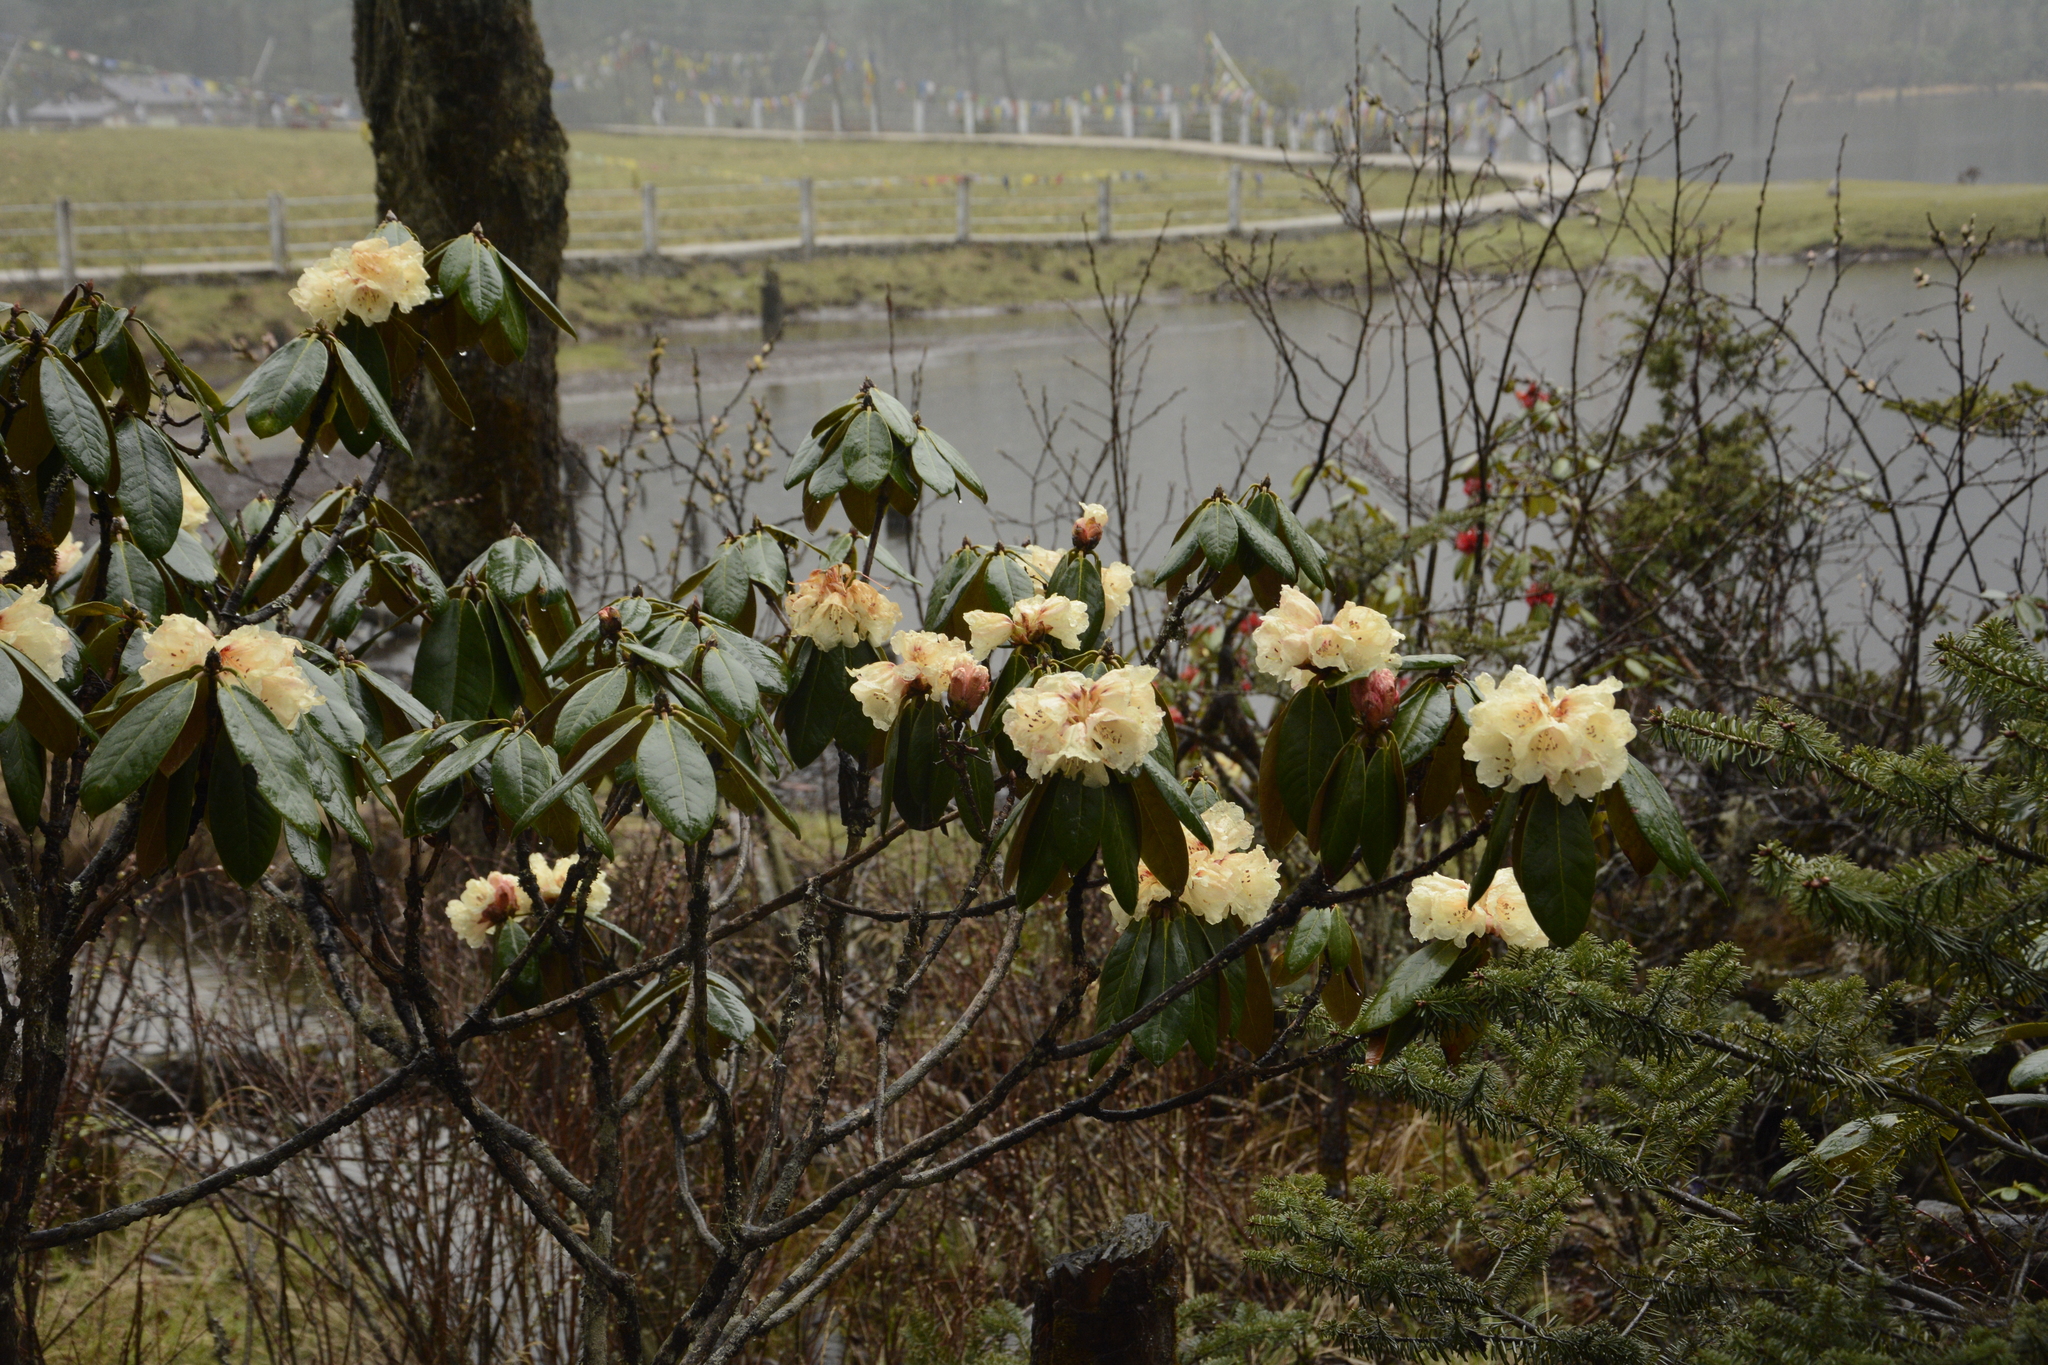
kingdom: Plantae
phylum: Tracheophyta
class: Magnoliopsida
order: Ericales
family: Ericaceae
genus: Rhododendron
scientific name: Rhododendron wightii
